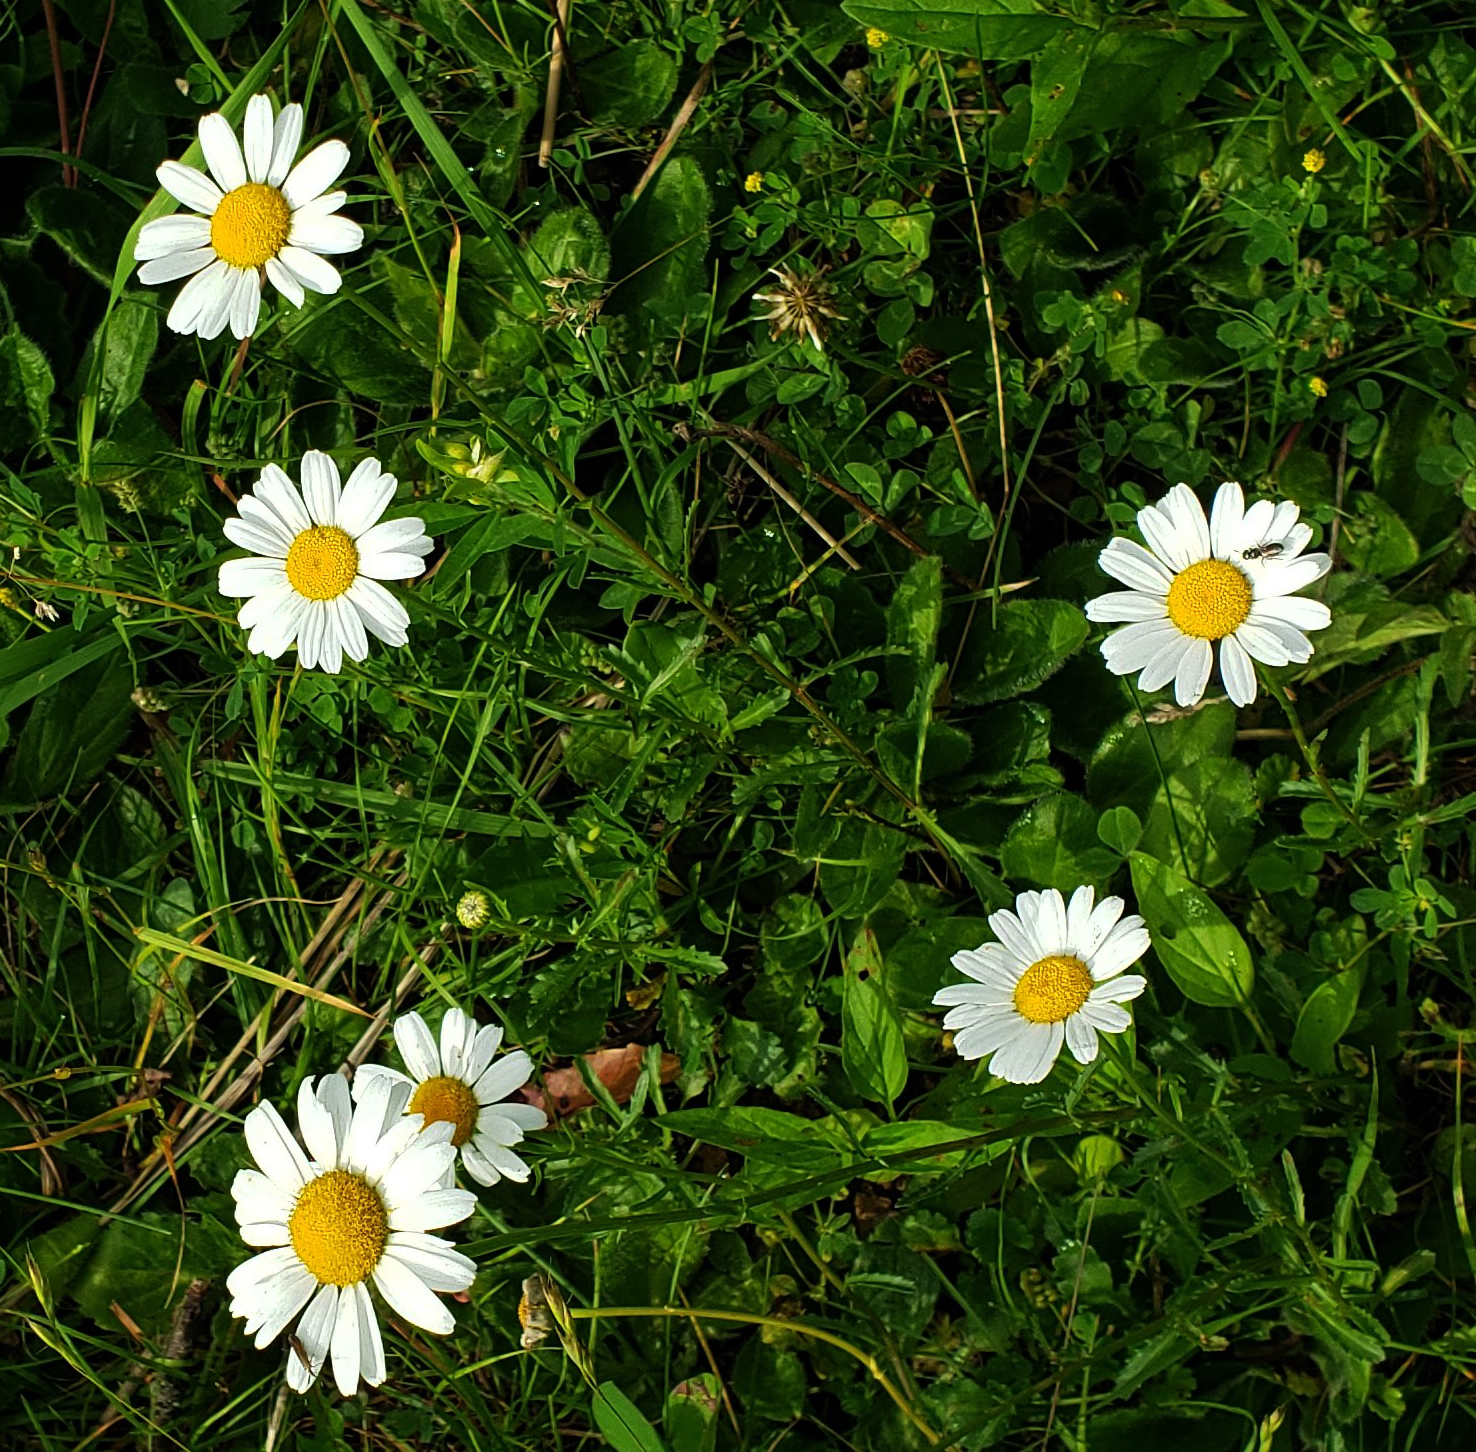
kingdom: Plantae
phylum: Tracheophyta
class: Magnoliopsida
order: Asterales
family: Asteraceae
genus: Leucanthemum
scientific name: Leucanthemum vulgare
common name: Oxeye daisy
